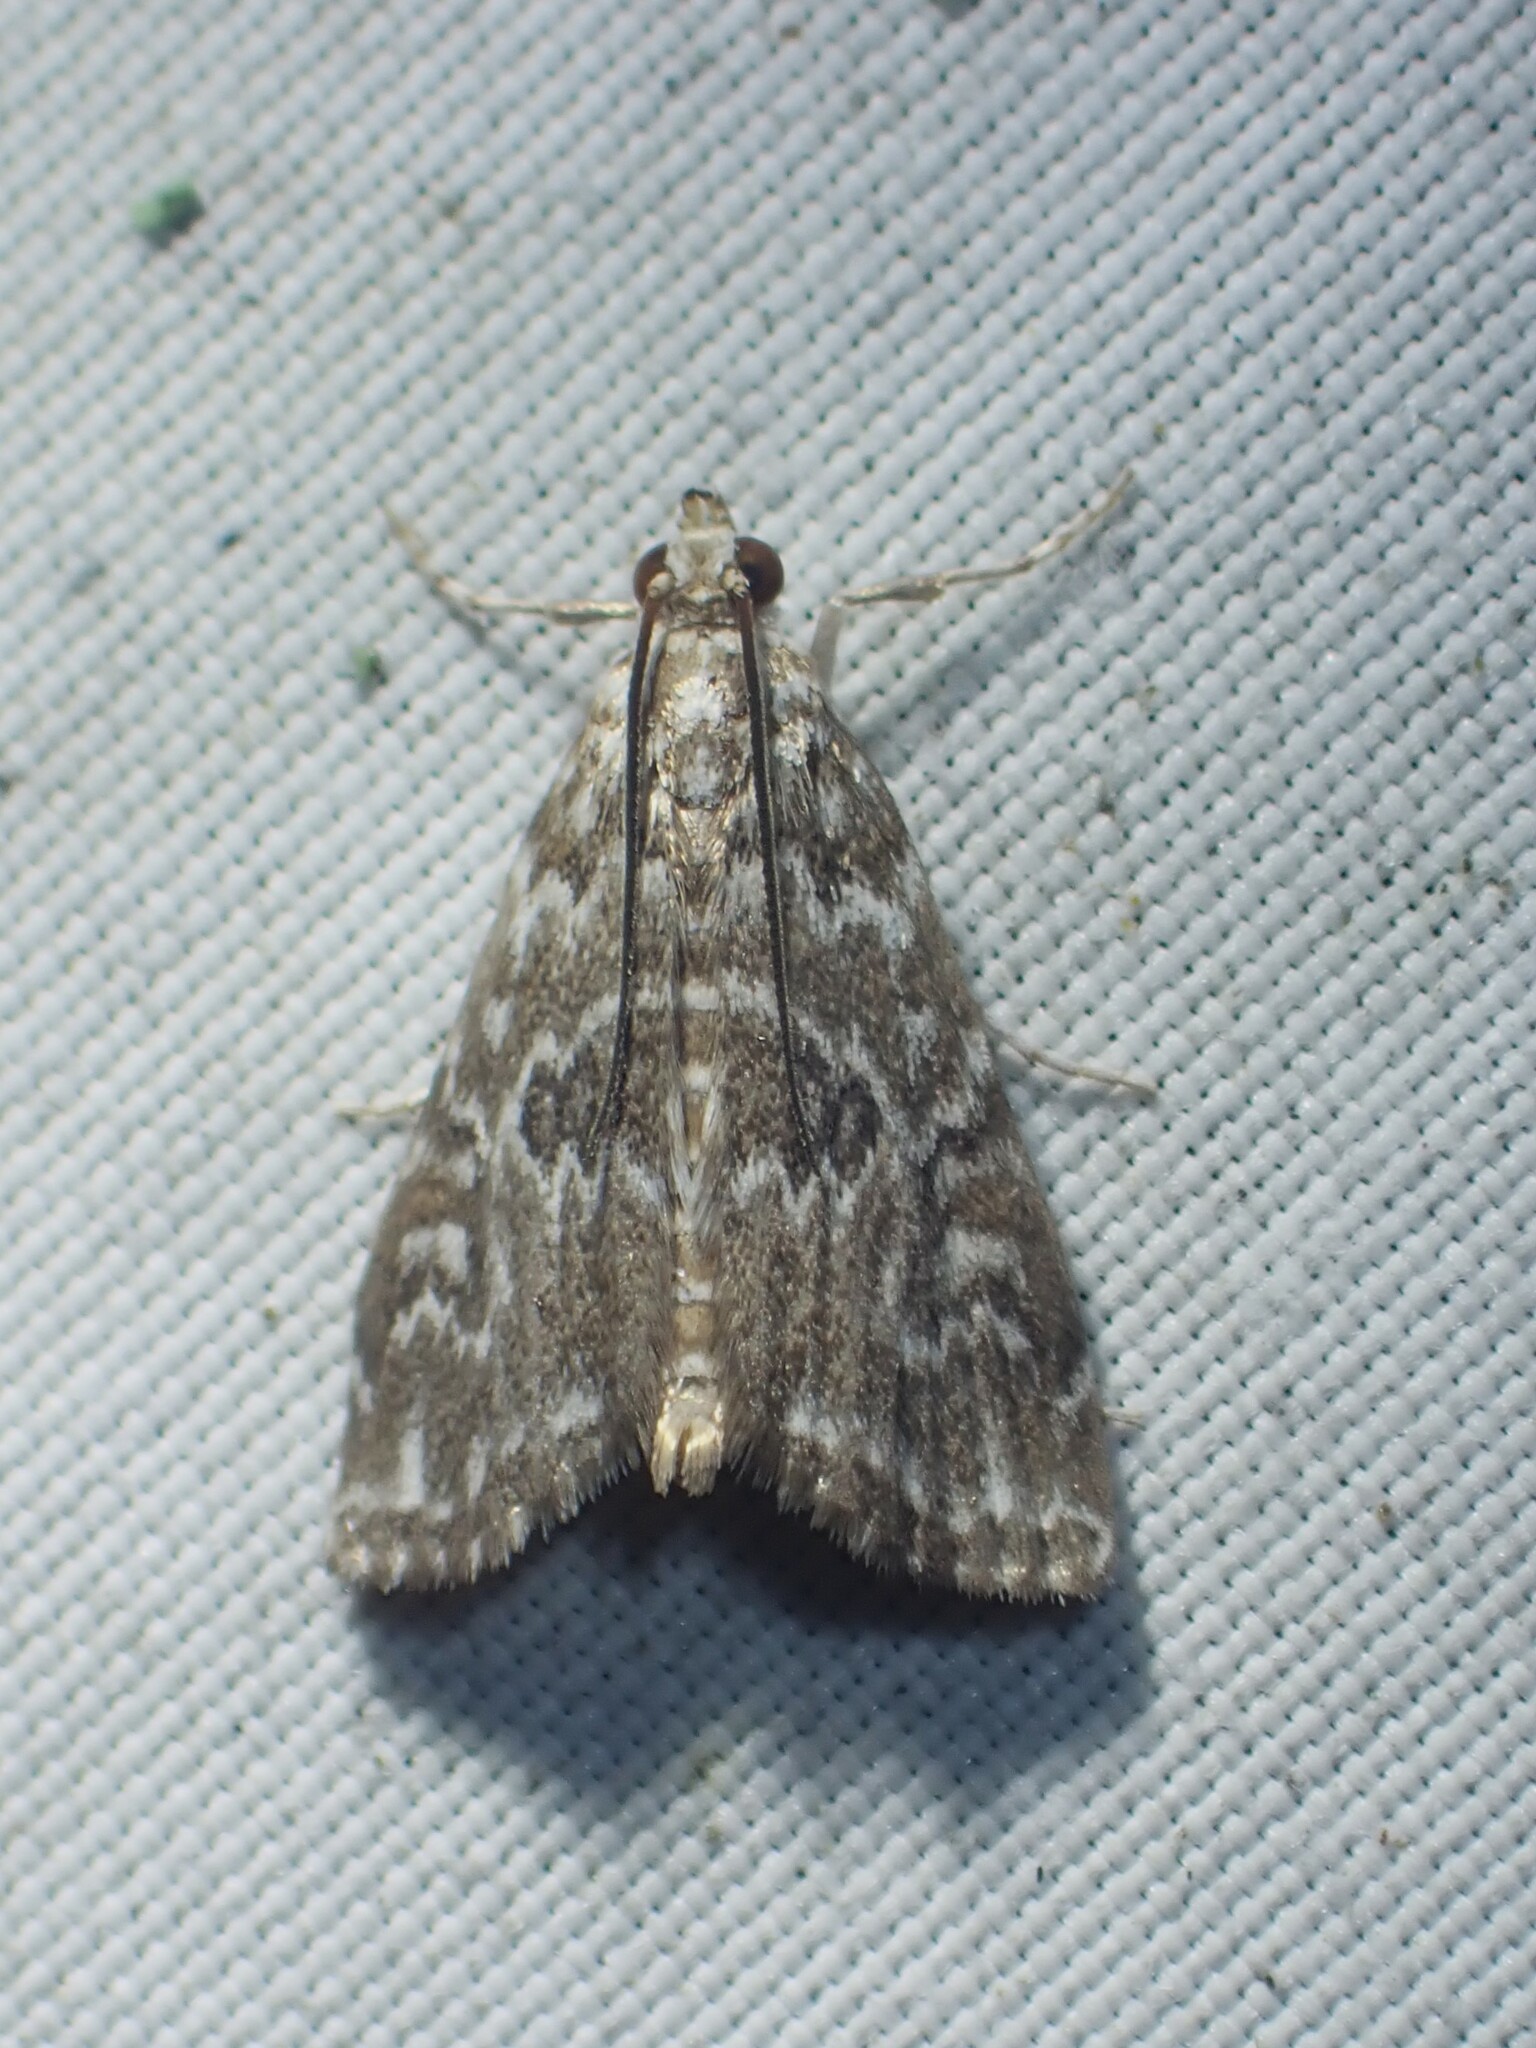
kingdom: Animalia
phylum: Arthropoda
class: Insecta
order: Lepidoptera
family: Crambidae
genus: Elophila
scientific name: Elophila gyralis
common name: Waterlily borer moth
